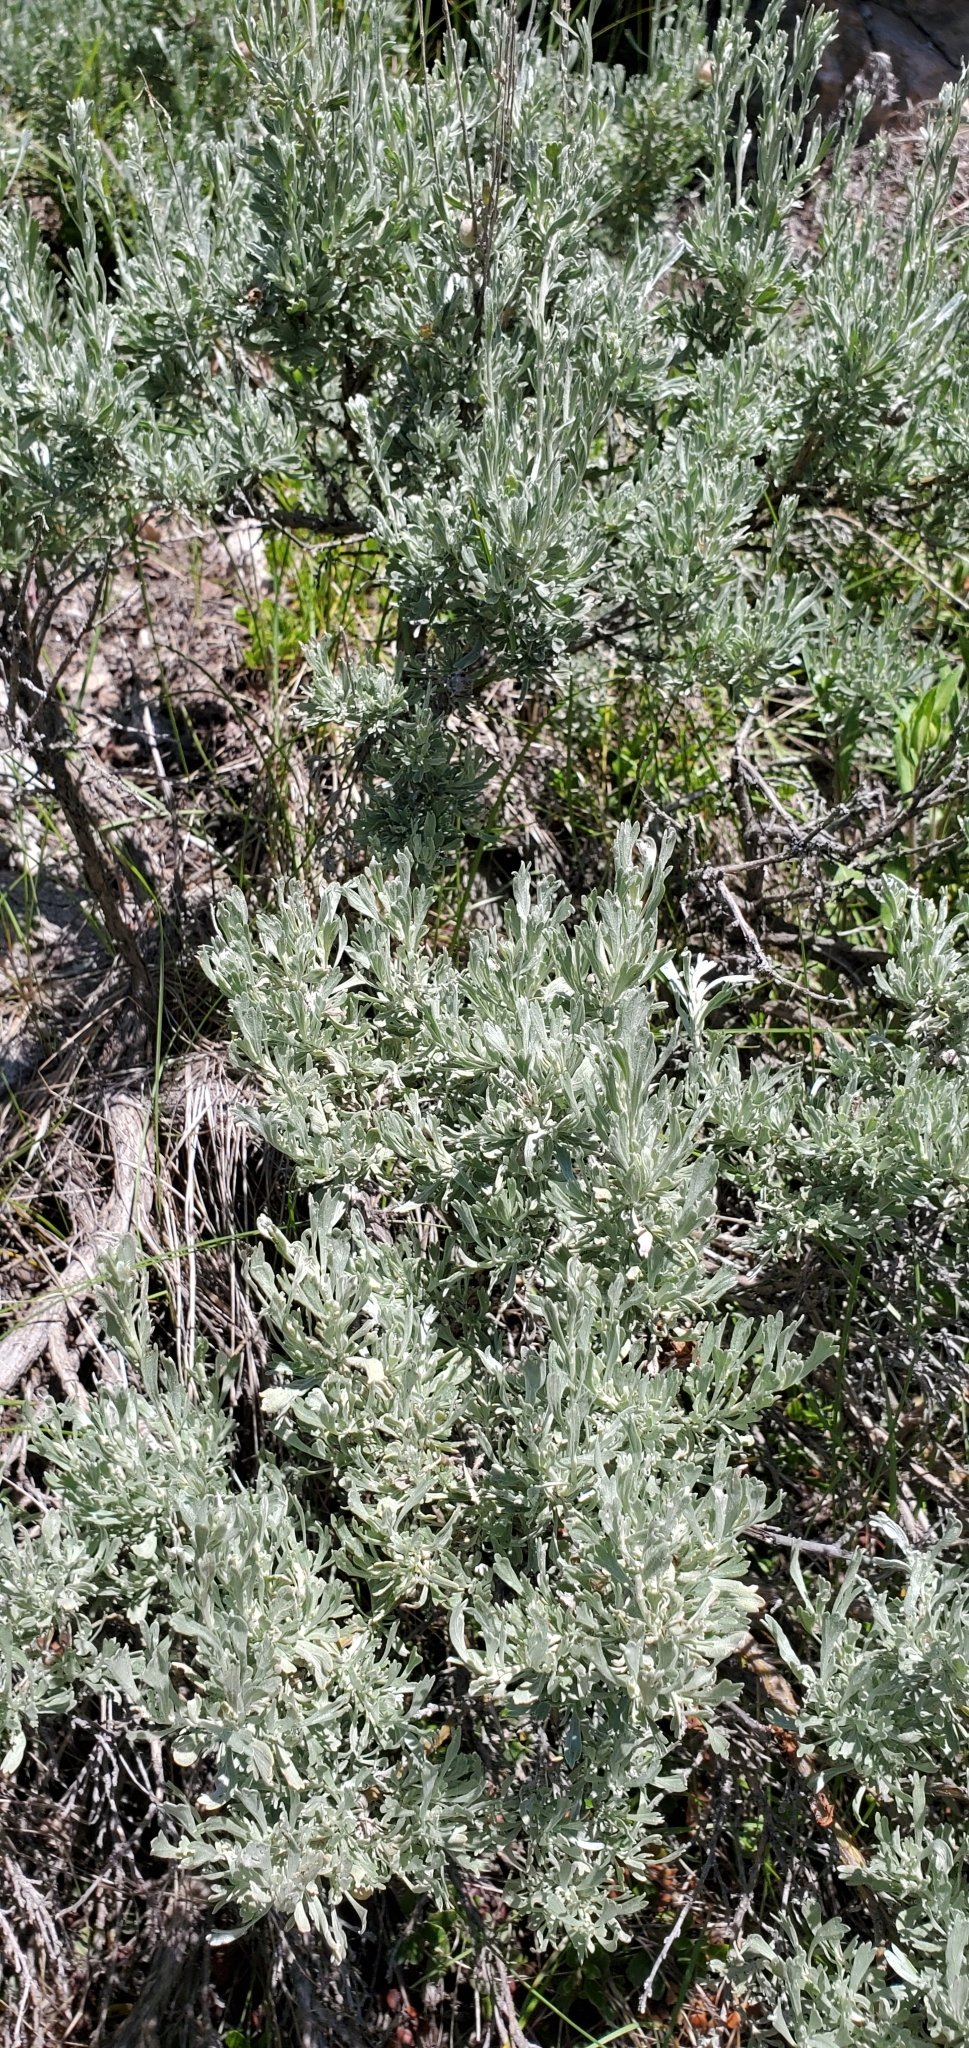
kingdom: Plantae
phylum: Tracheophyta
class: Magnoliopsida
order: Asterales
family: Asteraceae
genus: Artemisia
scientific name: Artemisia tridentata
